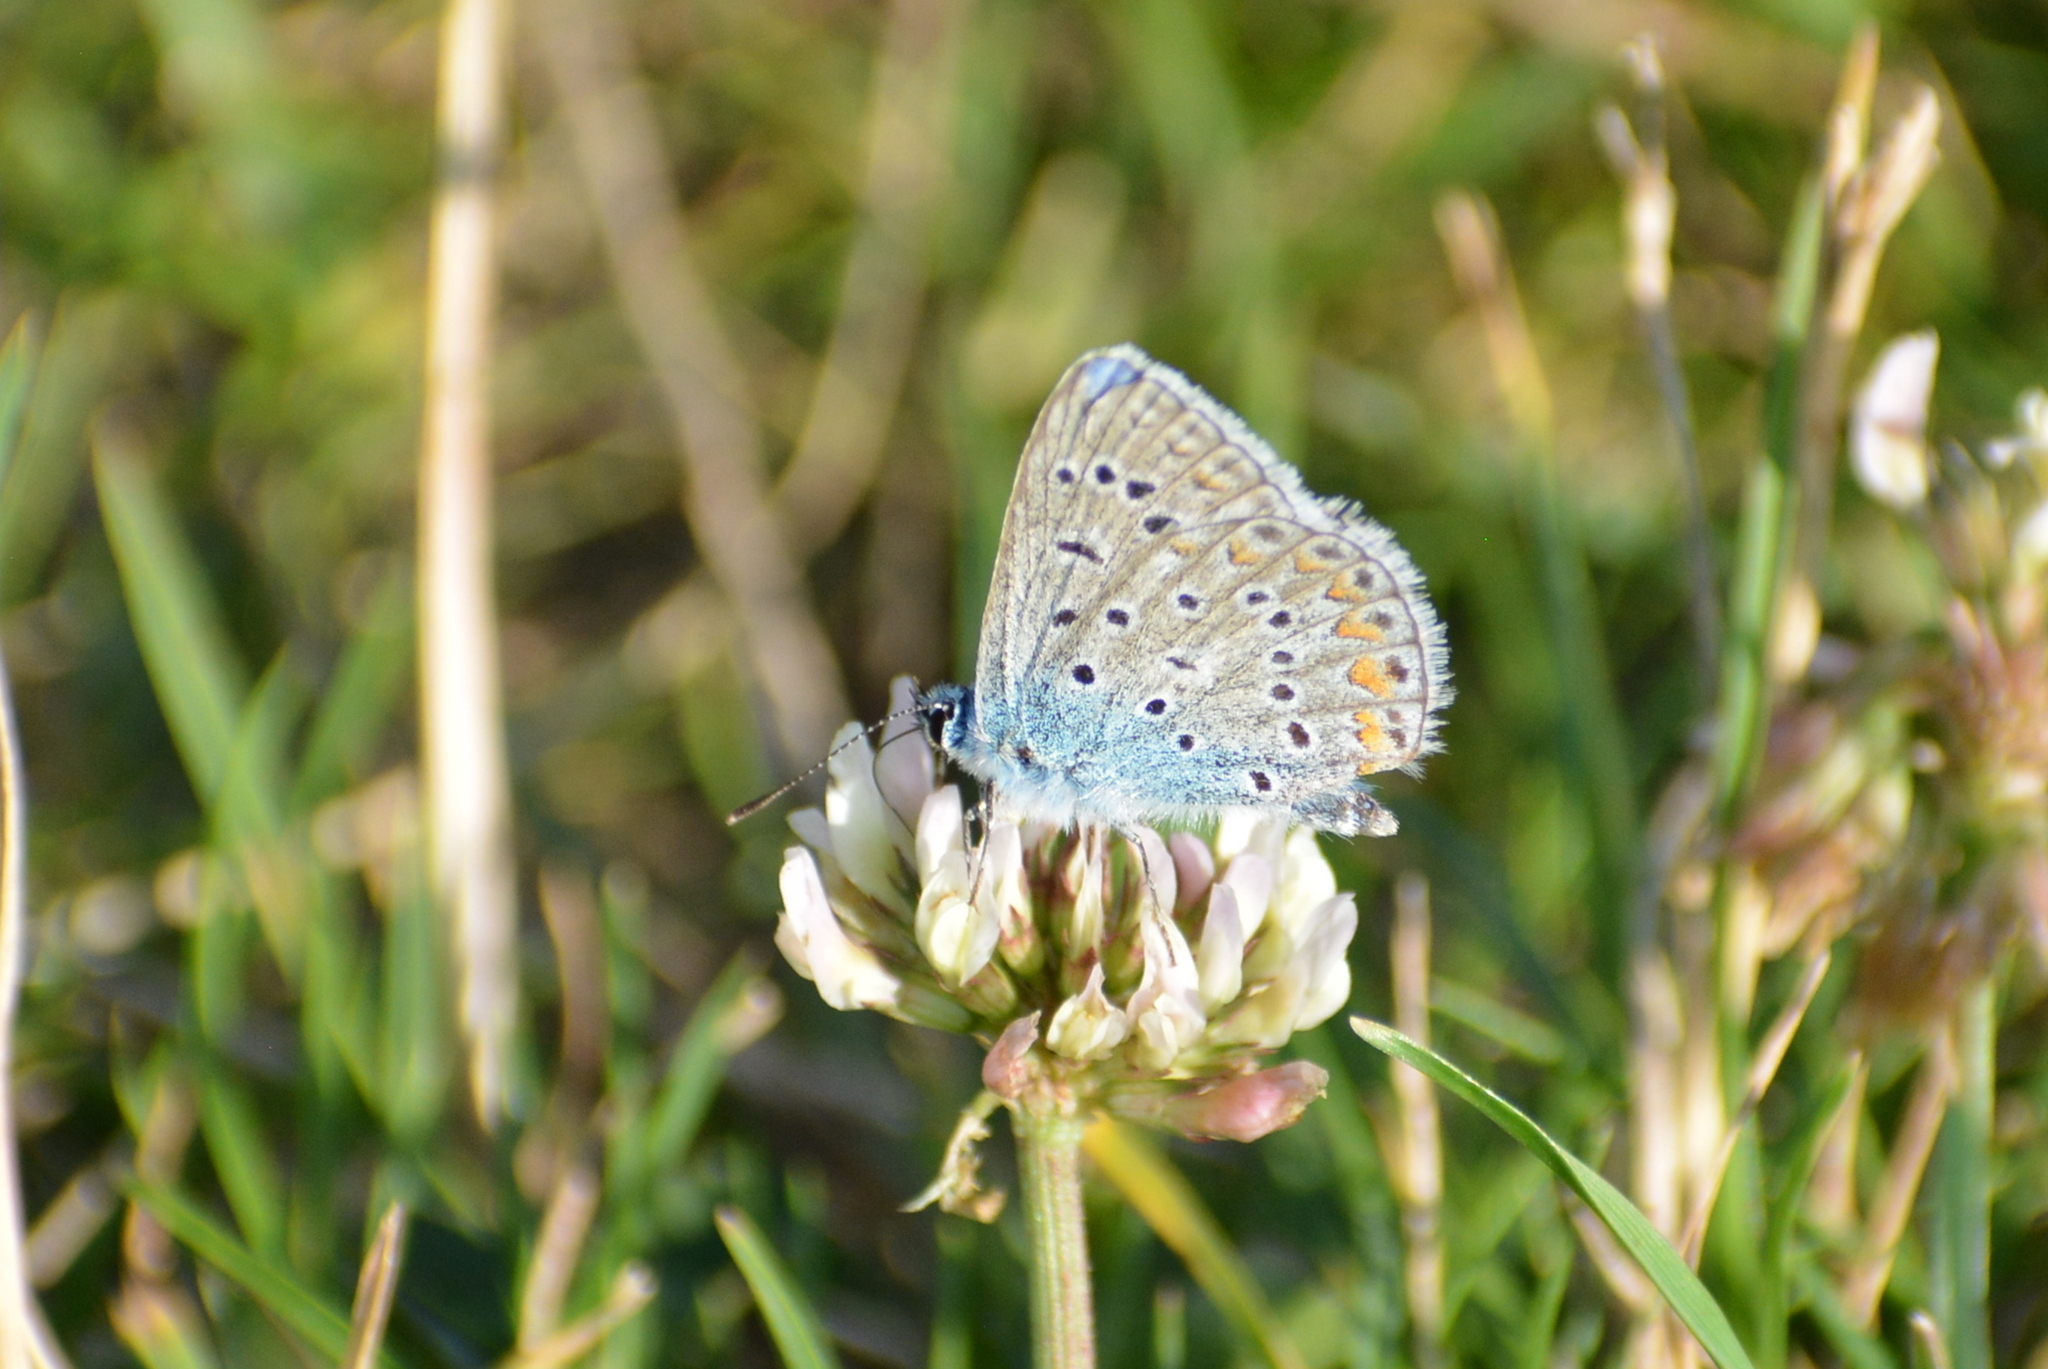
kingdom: Animalia
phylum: Arthropoda
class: Insecta
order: Lepidoptera
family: Lycaenidae
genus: Polyommatus
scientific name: Polyommatus icarus
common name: Common blue
